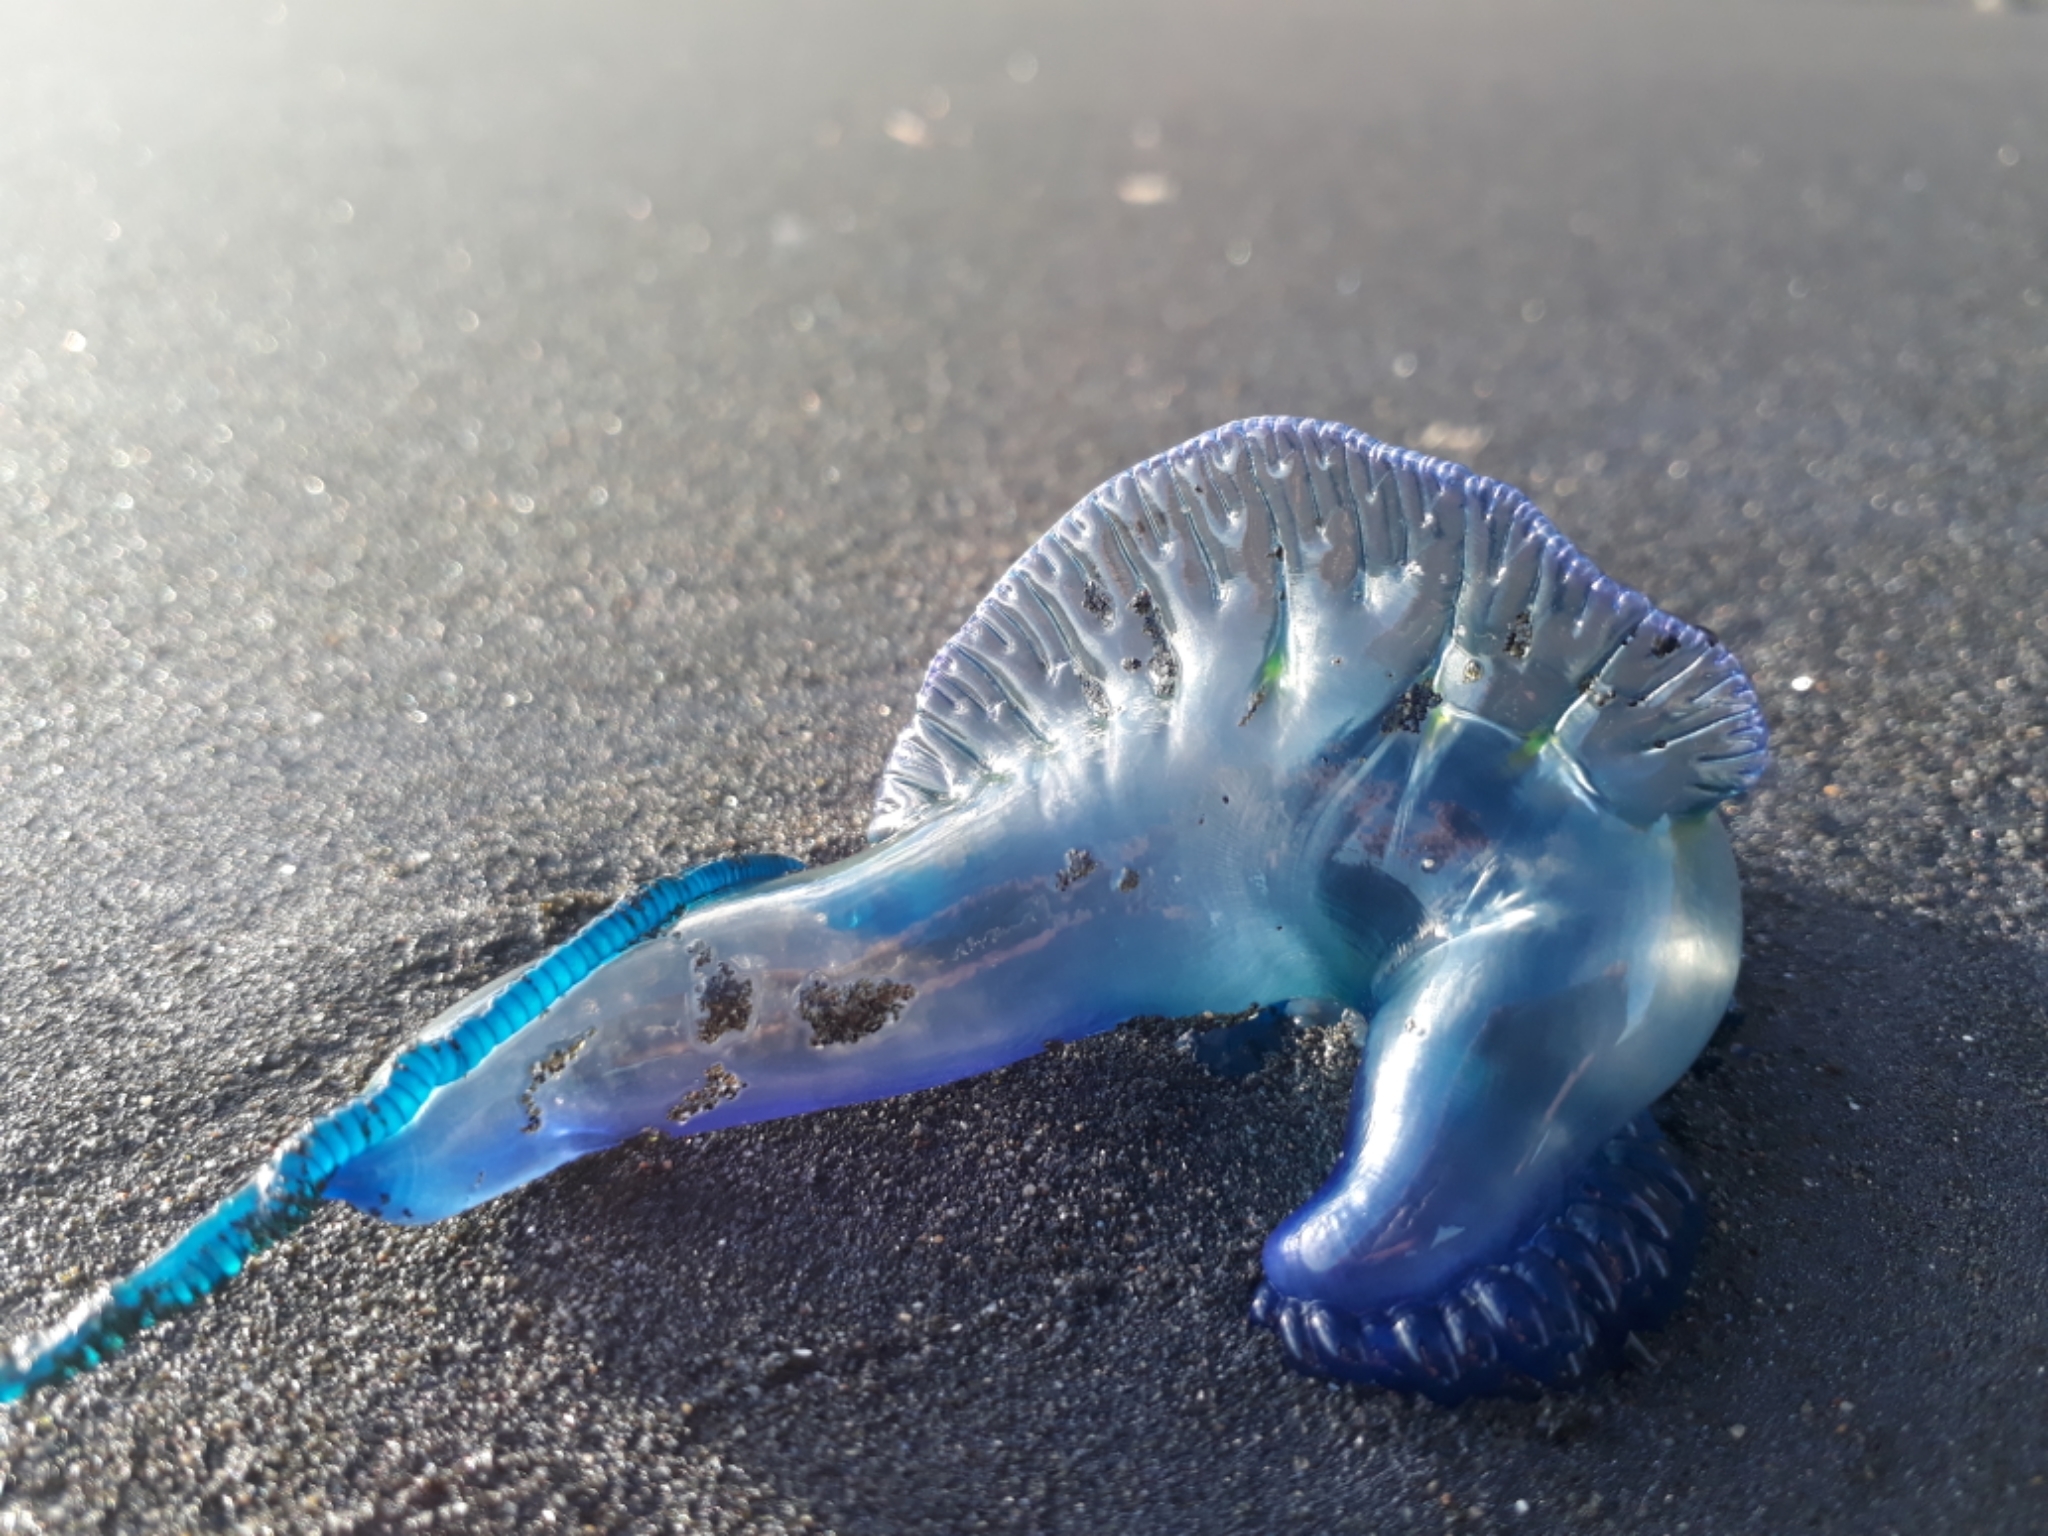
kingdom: Animalia
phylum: Cnidaria
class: Hydrozoa
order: Siphonophorae
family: Physaliidae
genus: Physalia
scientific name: Physalia physalis
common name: Portuguese man-of-war
